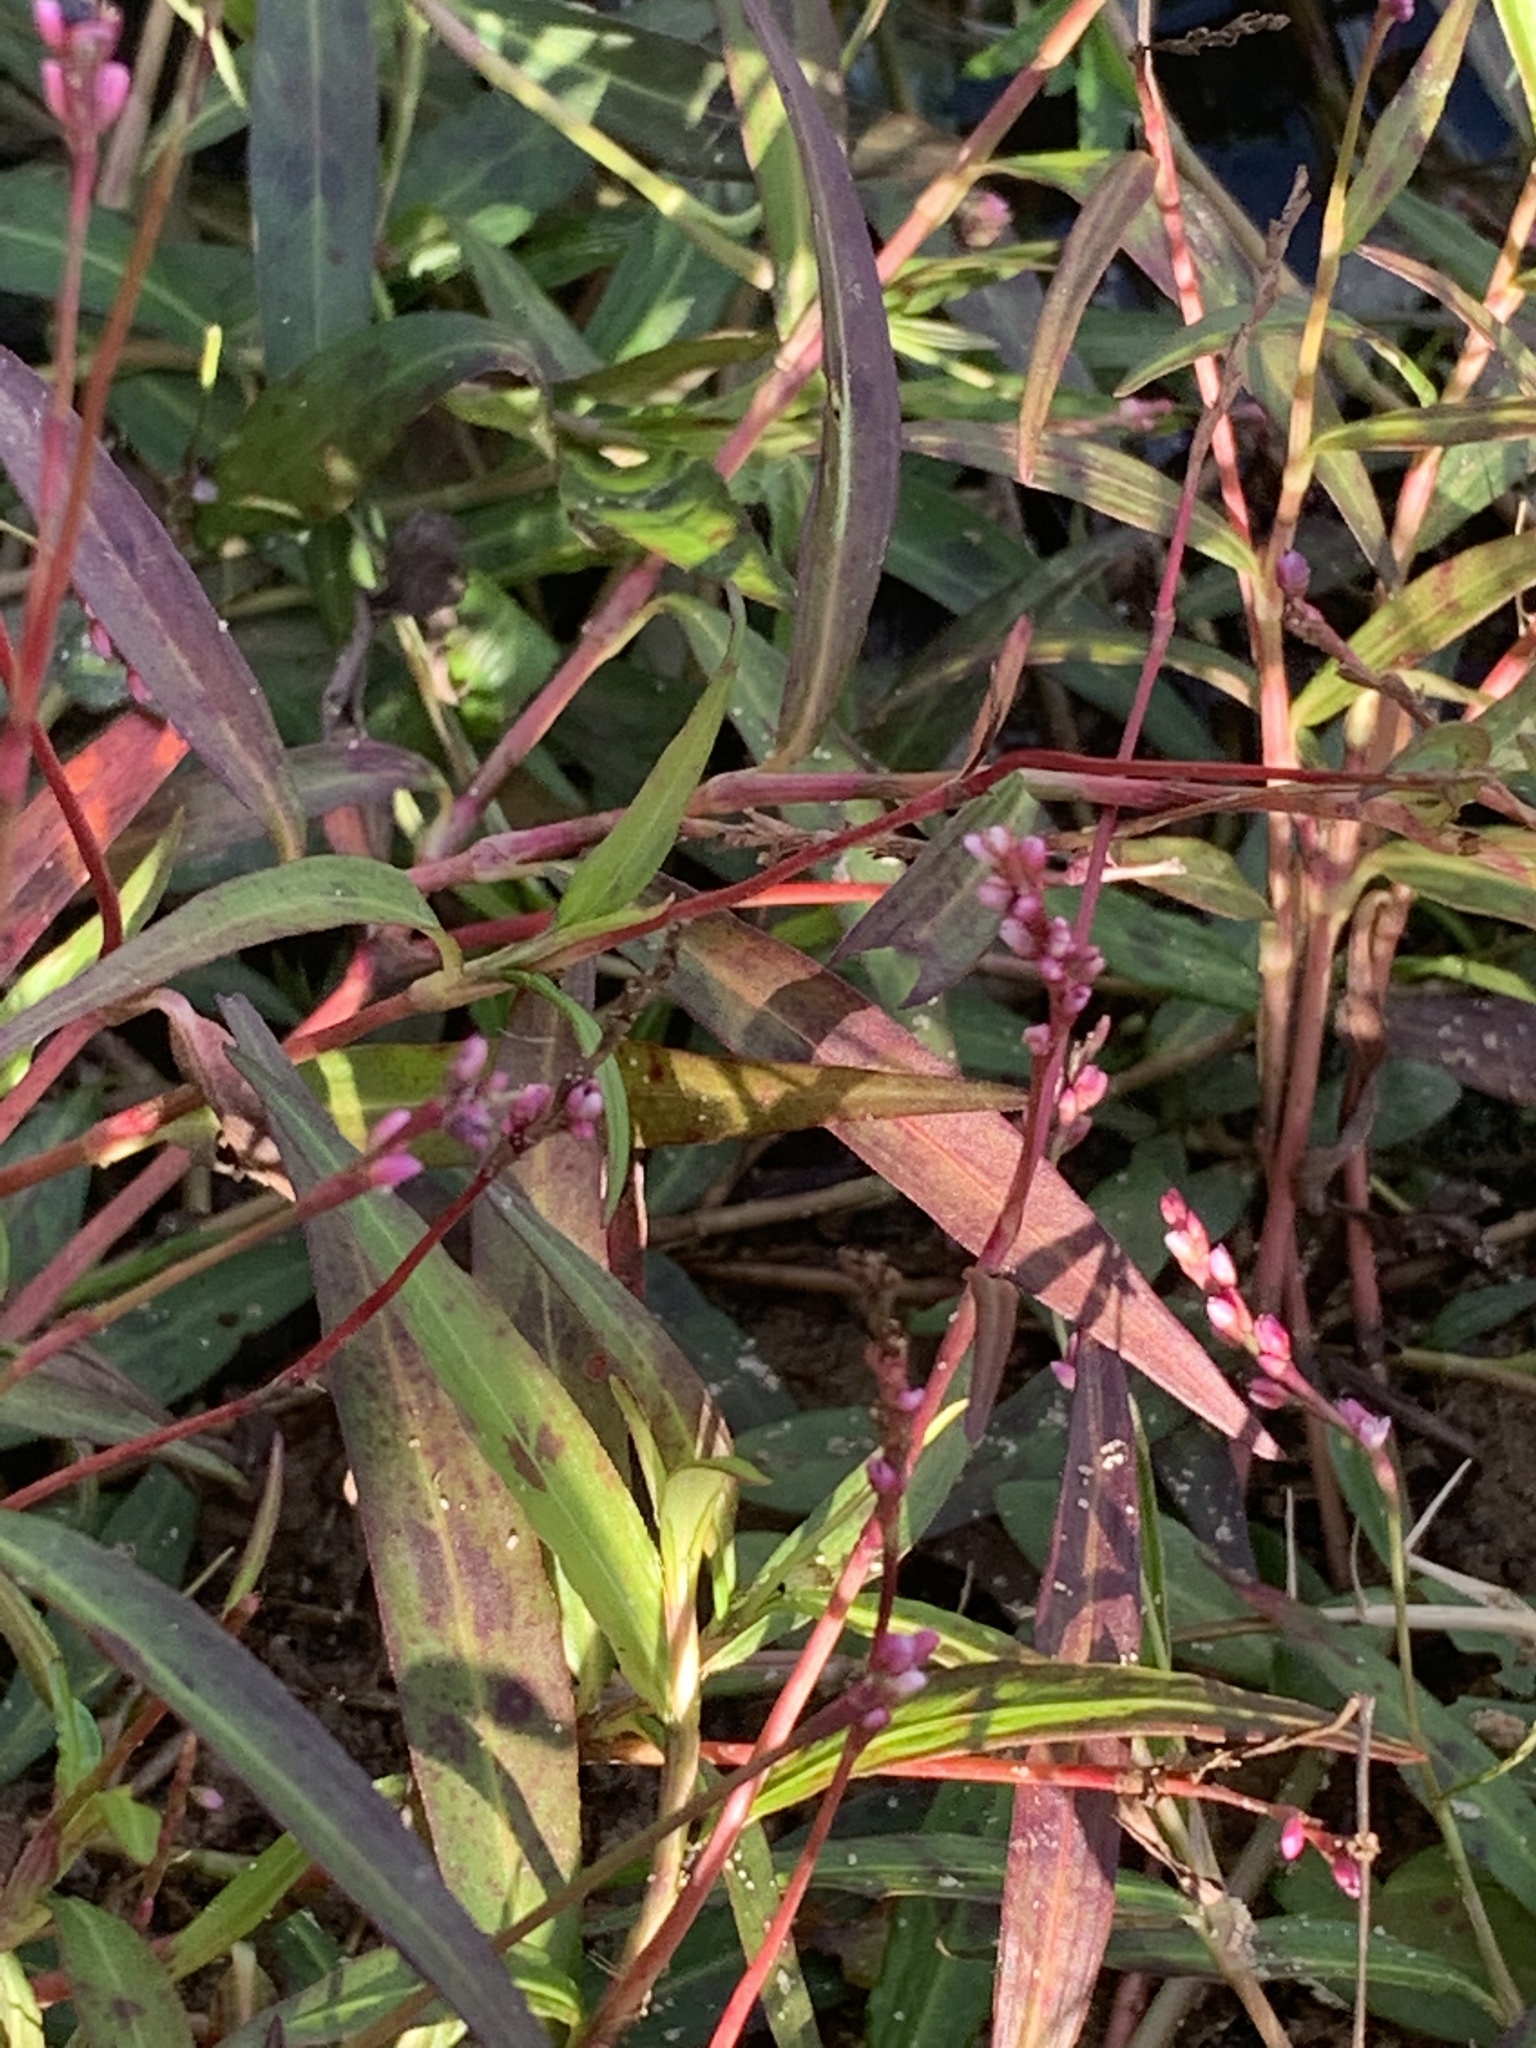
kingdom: Plantae
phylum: Tracheophyta
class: Magnoliopsida
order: Caryophyllales
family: Polygonaceae
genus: Persicaria
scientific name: Persicaria decipiens
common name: Willow-weed
